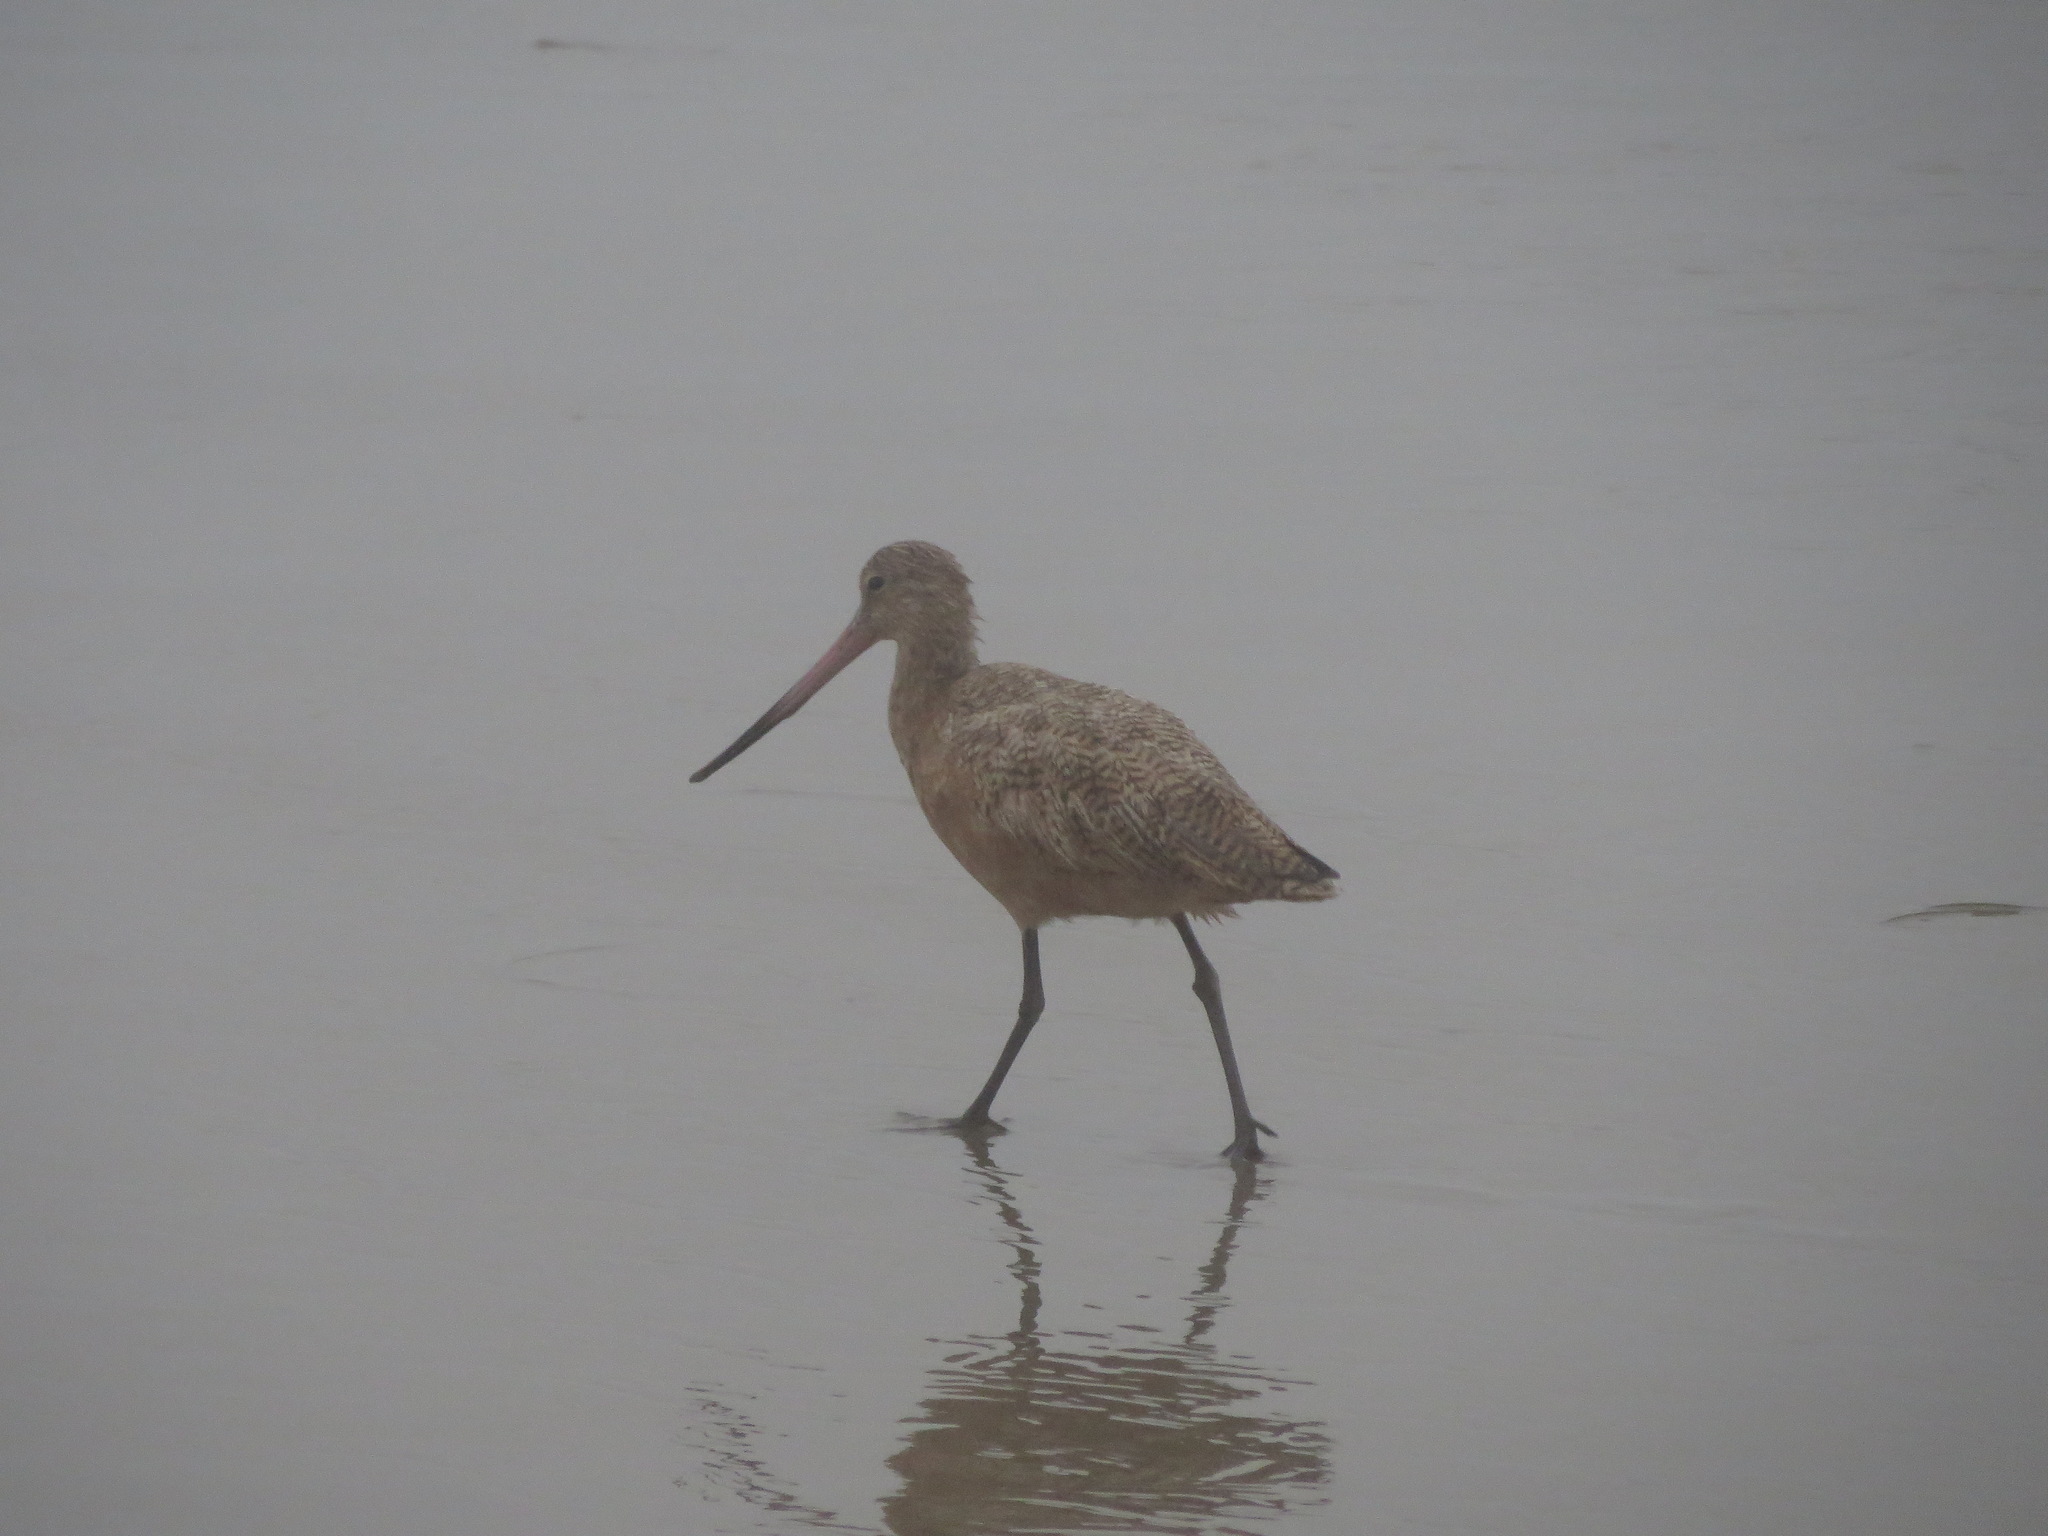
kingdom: Animalia
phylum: Chordata
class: Aves
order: Charadriiformes
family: Scolopacidae
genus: Limosa
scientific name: Limosa fedoa
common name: Marbled godwit
